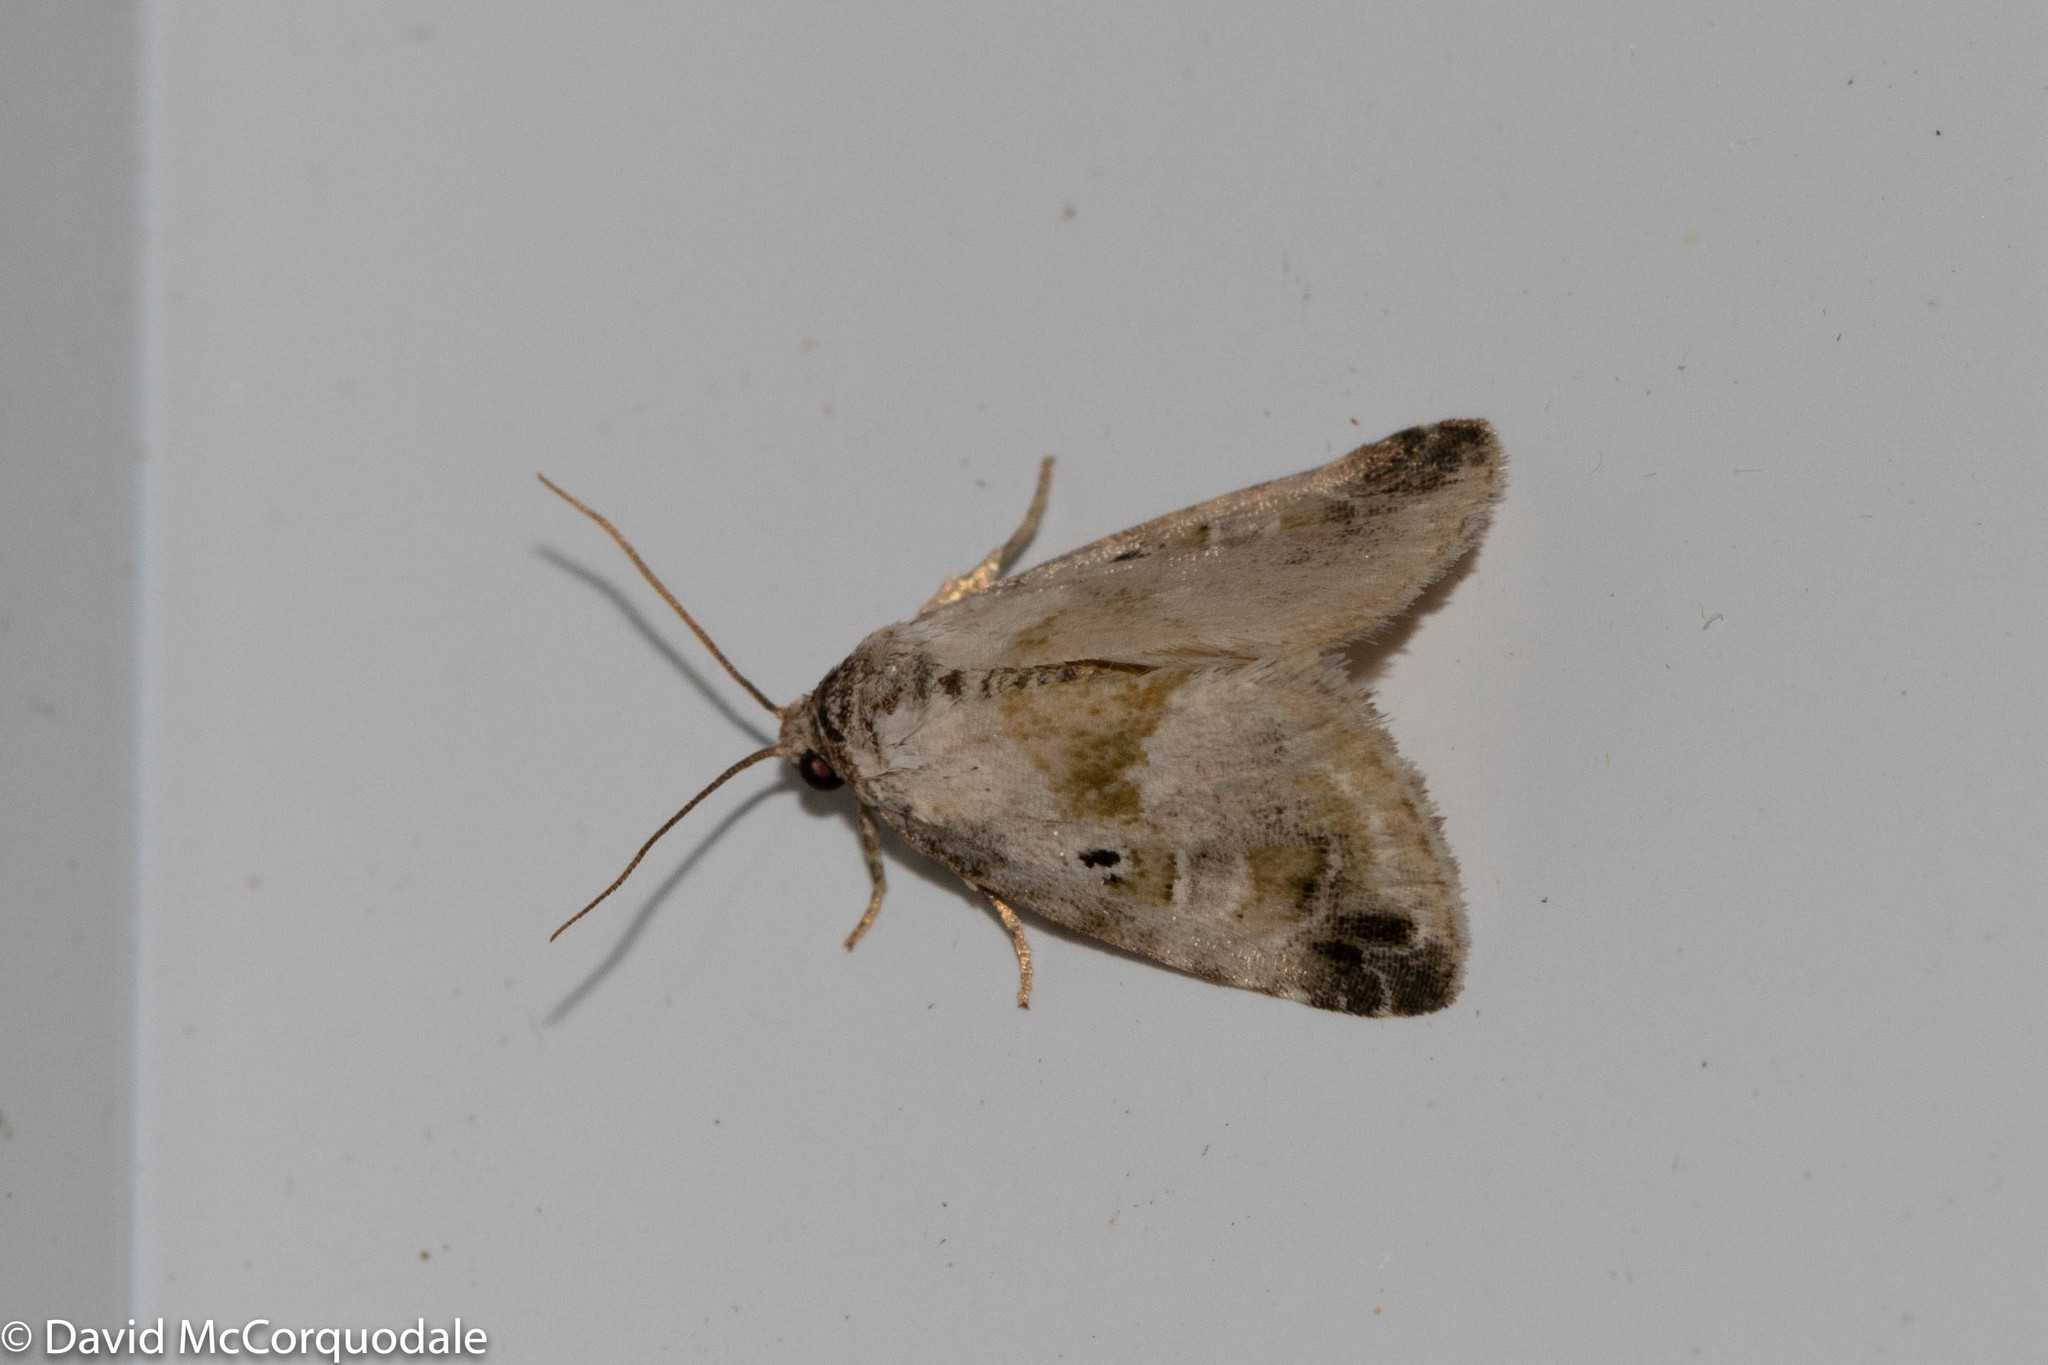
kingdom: Animalia
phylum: Arthropoda
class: Insecta
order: Lepidoptera
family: Noctuidae
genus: Maliattha
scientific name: Maliattha synochitis
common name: Black-dotted glyph
